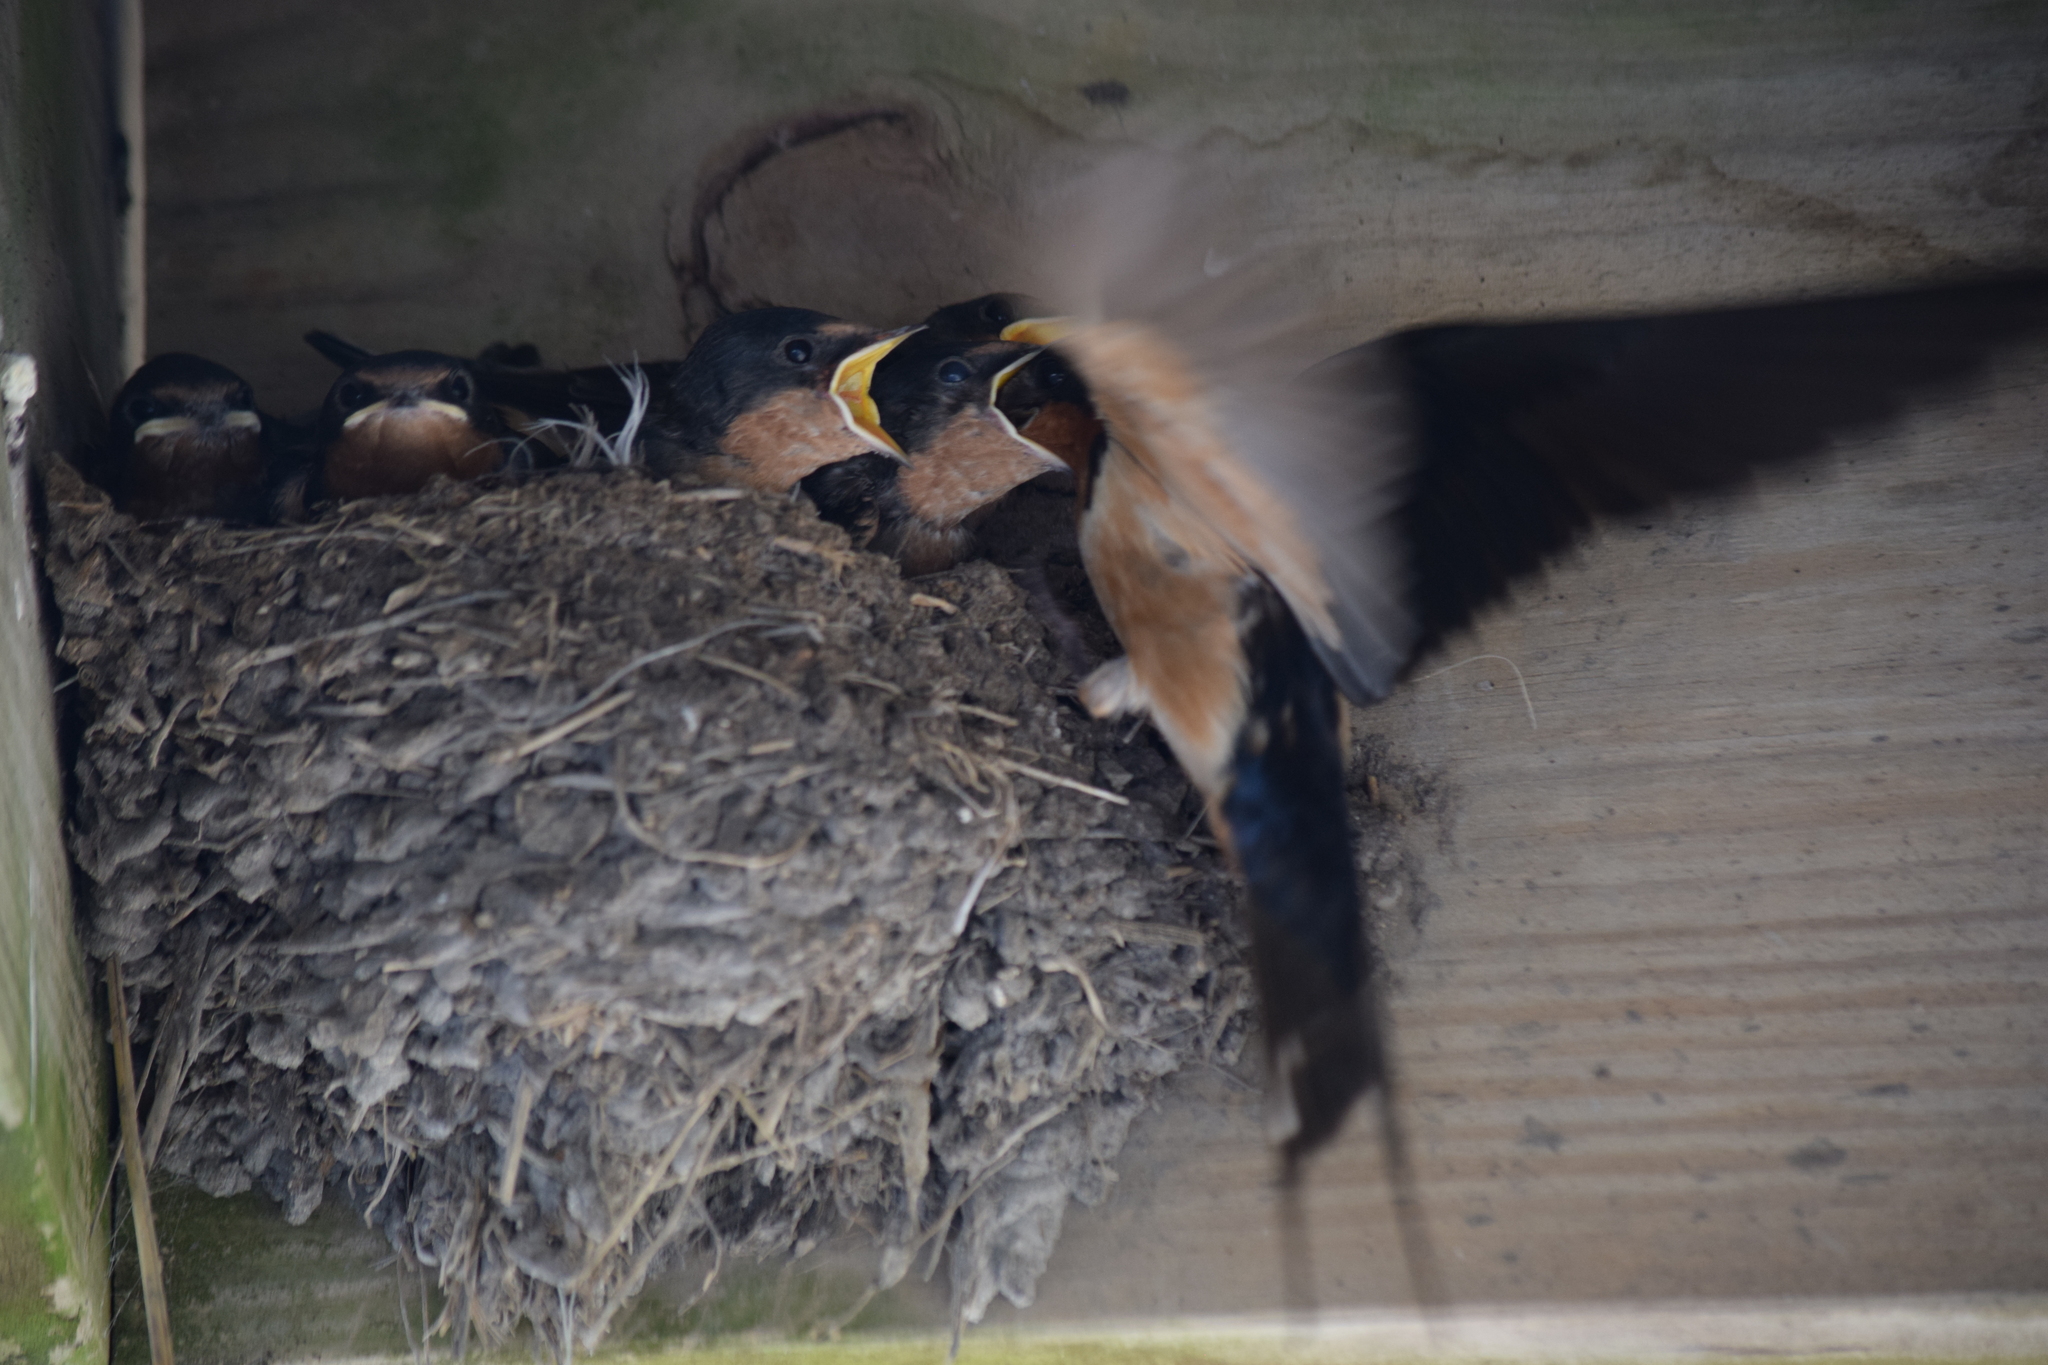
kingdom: Animalia
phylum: Chordata
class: Aves
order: Passeriformes
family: Hirundinidae
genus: Hirundo
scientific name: Hirundo rustica
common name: Barn swallow
